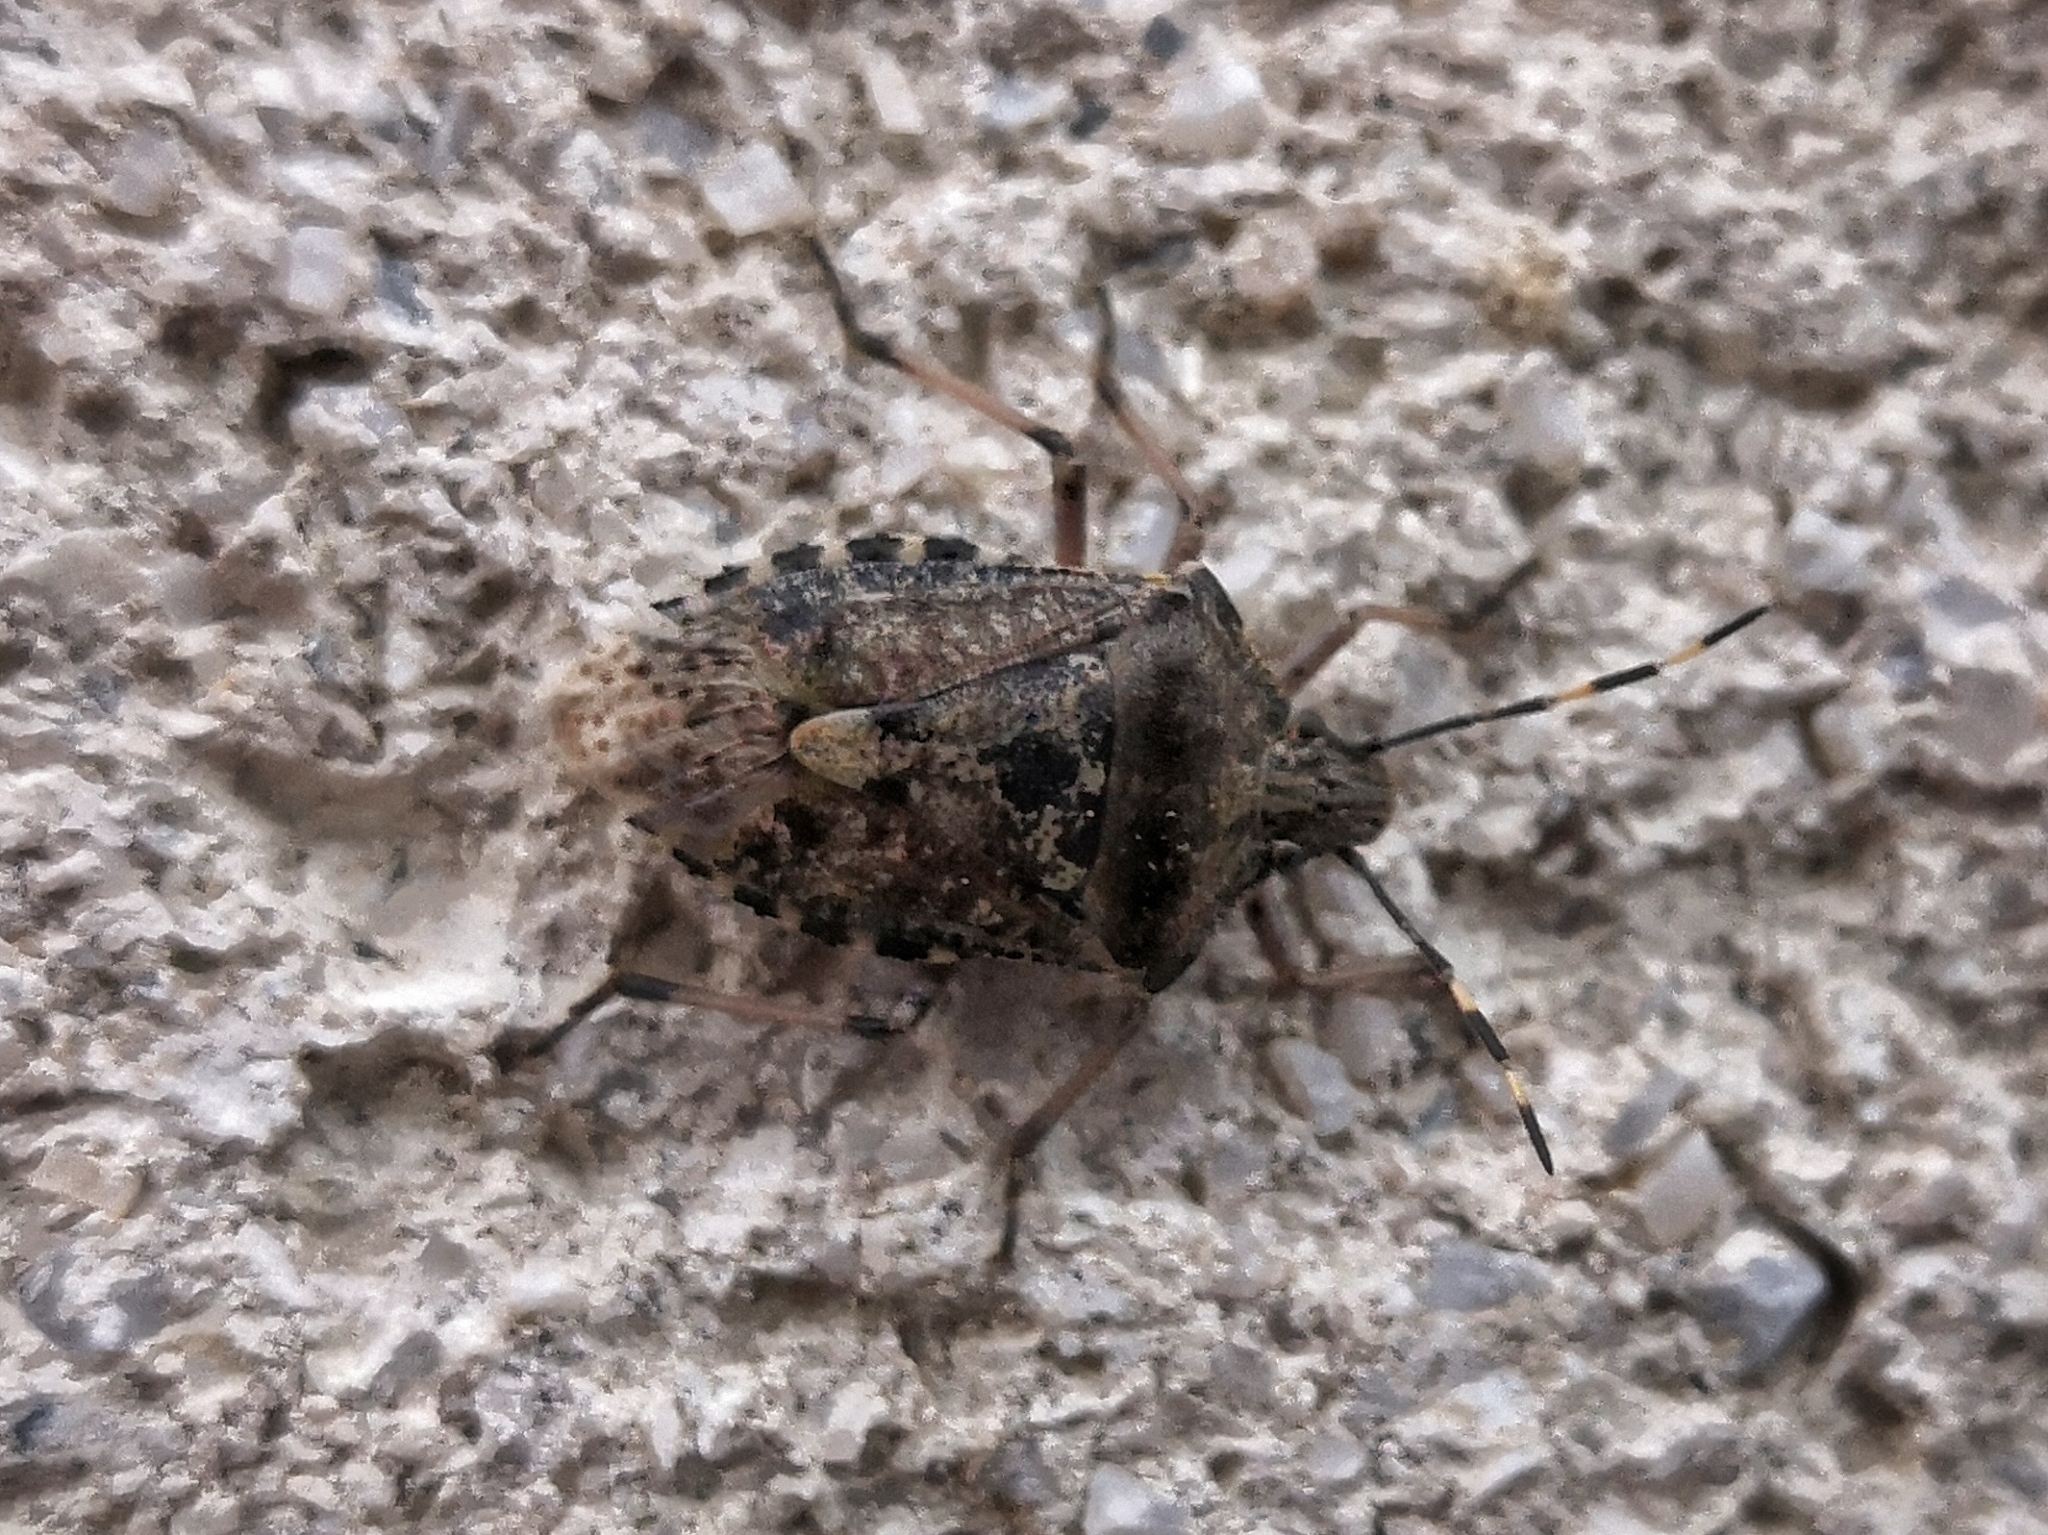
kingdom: Animalia
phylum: Arthropoda
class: Insecta
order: Hemiptera
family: Pentatomidae
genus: Rhaphigaster
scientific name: Rhaphigaster nebulosa
